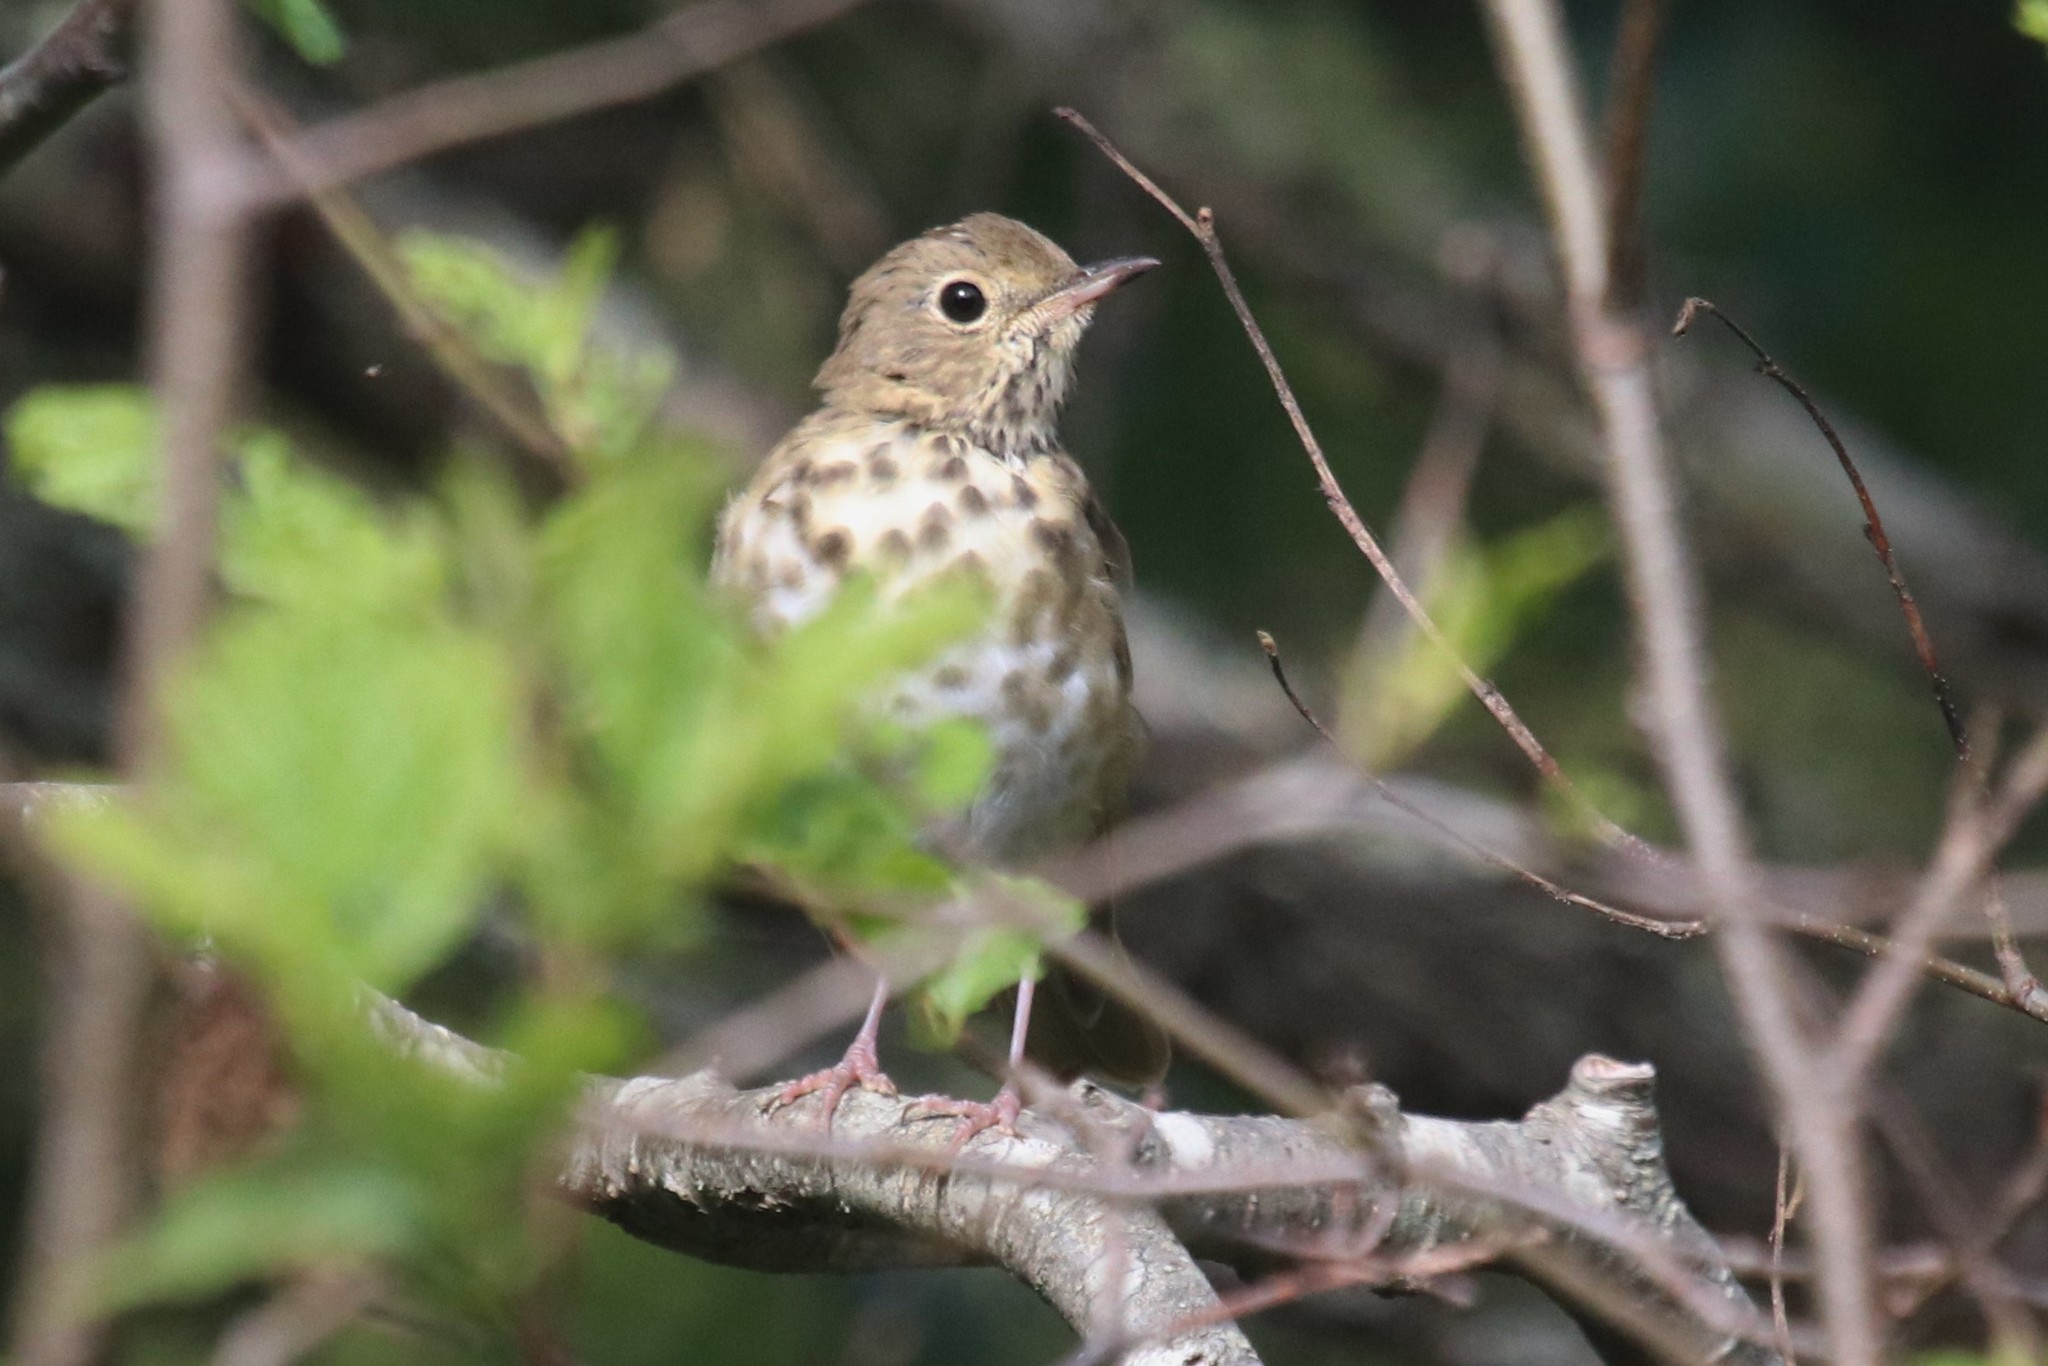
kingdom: Animalia
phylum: Chordata
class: Aves
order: Passeriformes
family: Turdidae
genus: Catharus
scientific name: Catharus guttatus
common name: Hermit thrush
